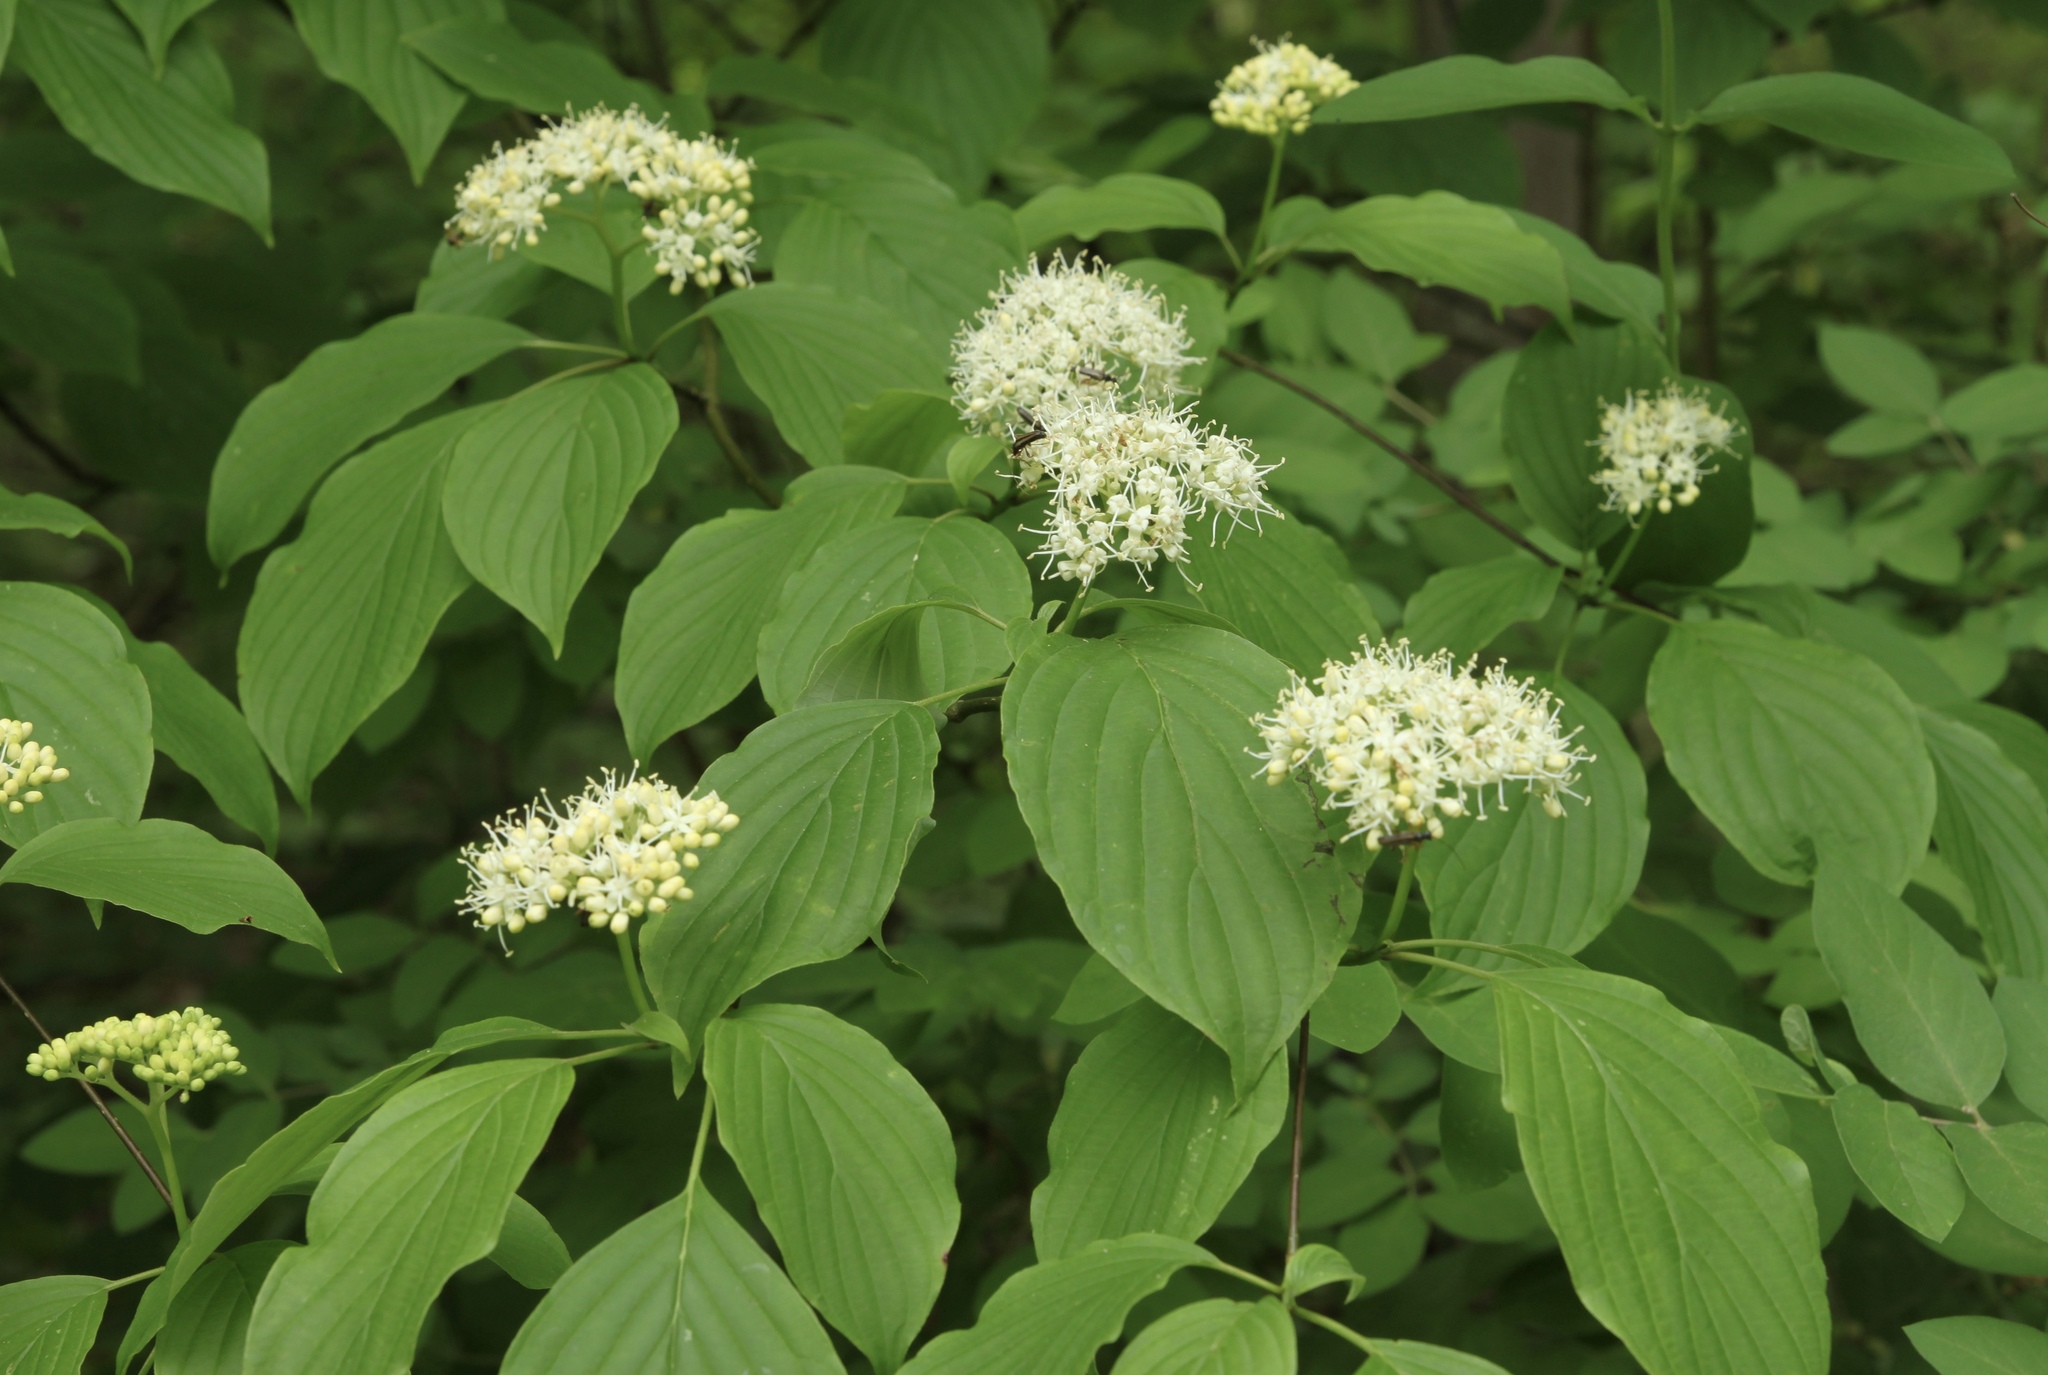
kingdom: Plantae
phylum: Tracheophyta
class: Magnoliopsida
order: Cornales
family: Cornaceae
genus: Cornus
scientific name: Cornus alternifolia
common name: Pagoda dogwood
